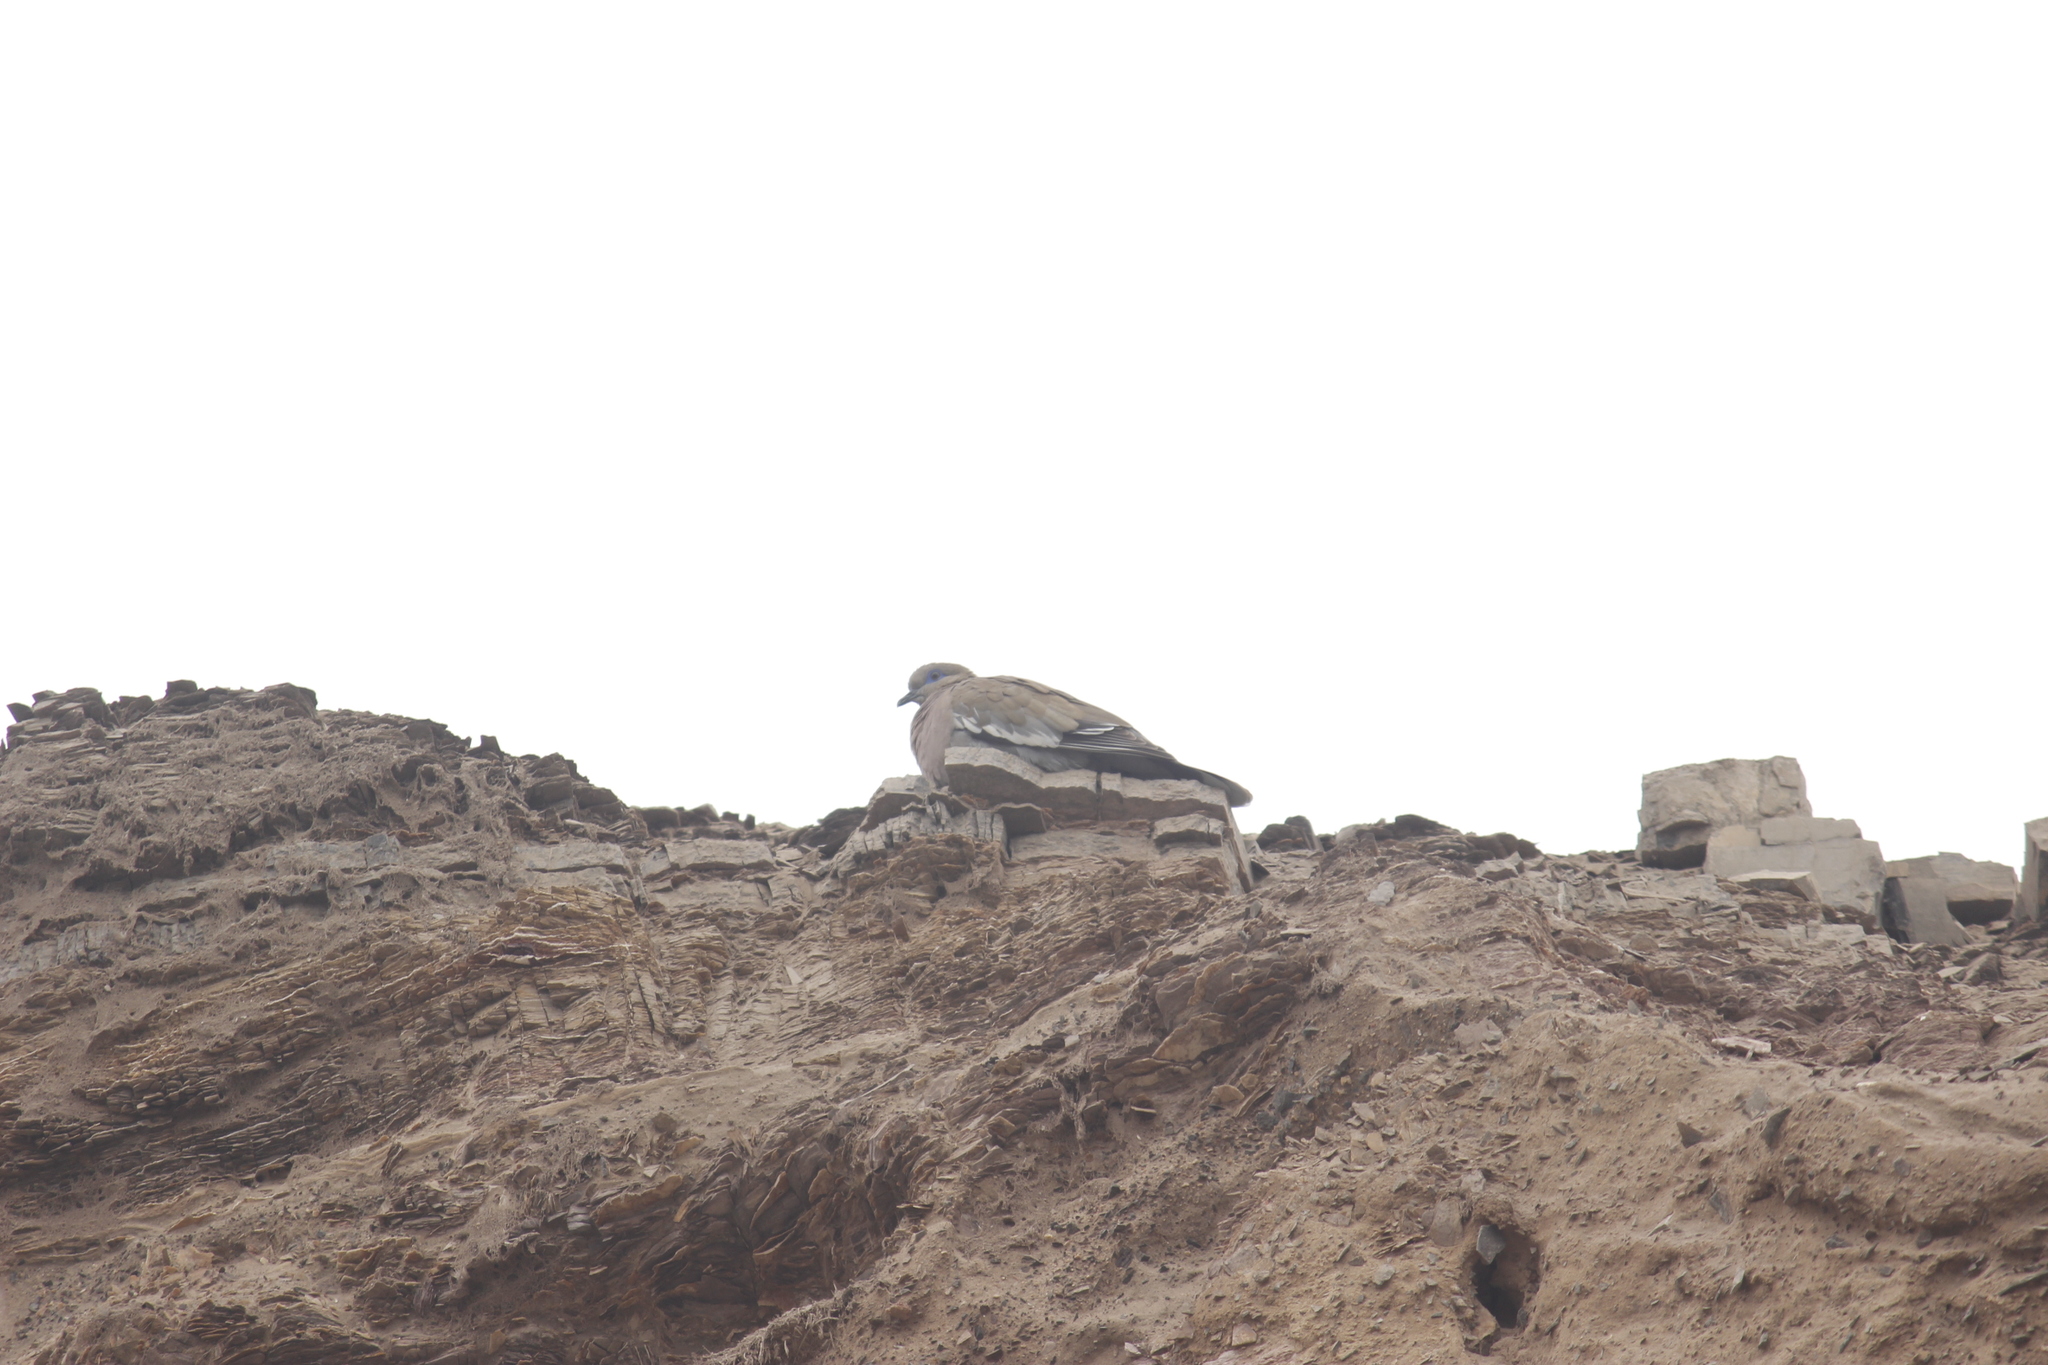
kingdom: Animalia
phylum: Chordata
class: Aves
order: Columbiformes
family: Columbidae
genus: Zenaida
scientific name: Zenaida meloda
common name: West peruvian dove
